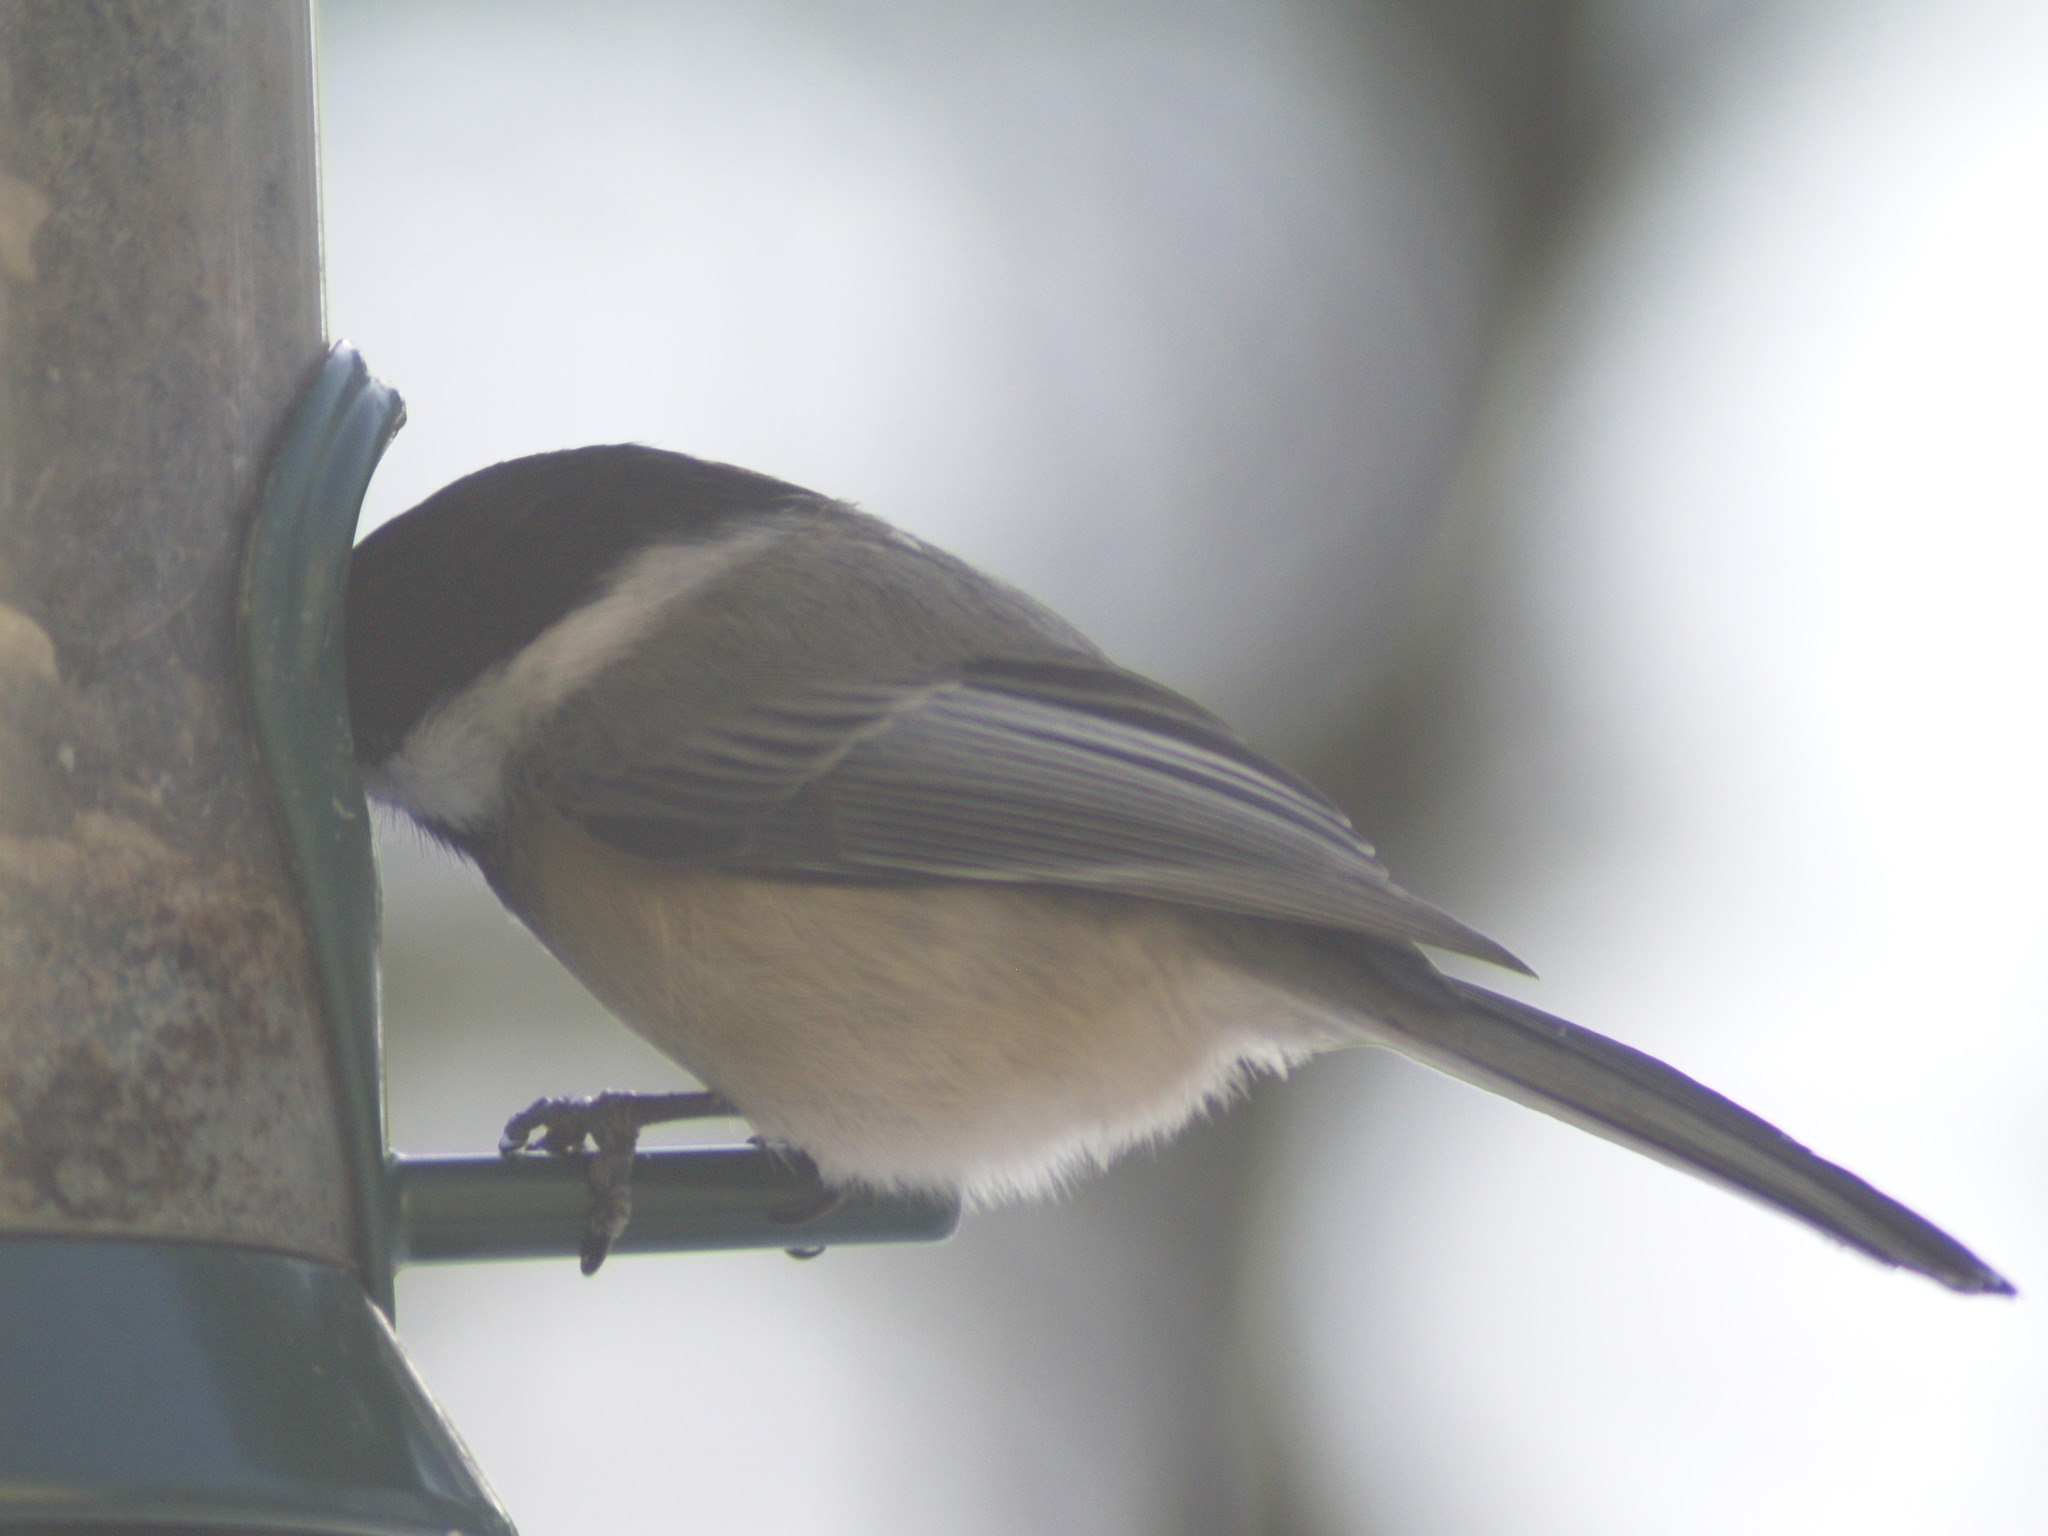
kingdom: Animalia
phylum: Chordata
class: Aves
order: Passeriformes
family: Paridae
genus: Poecile
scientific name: Poecile atricapillus
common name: Black-capped chickadee
